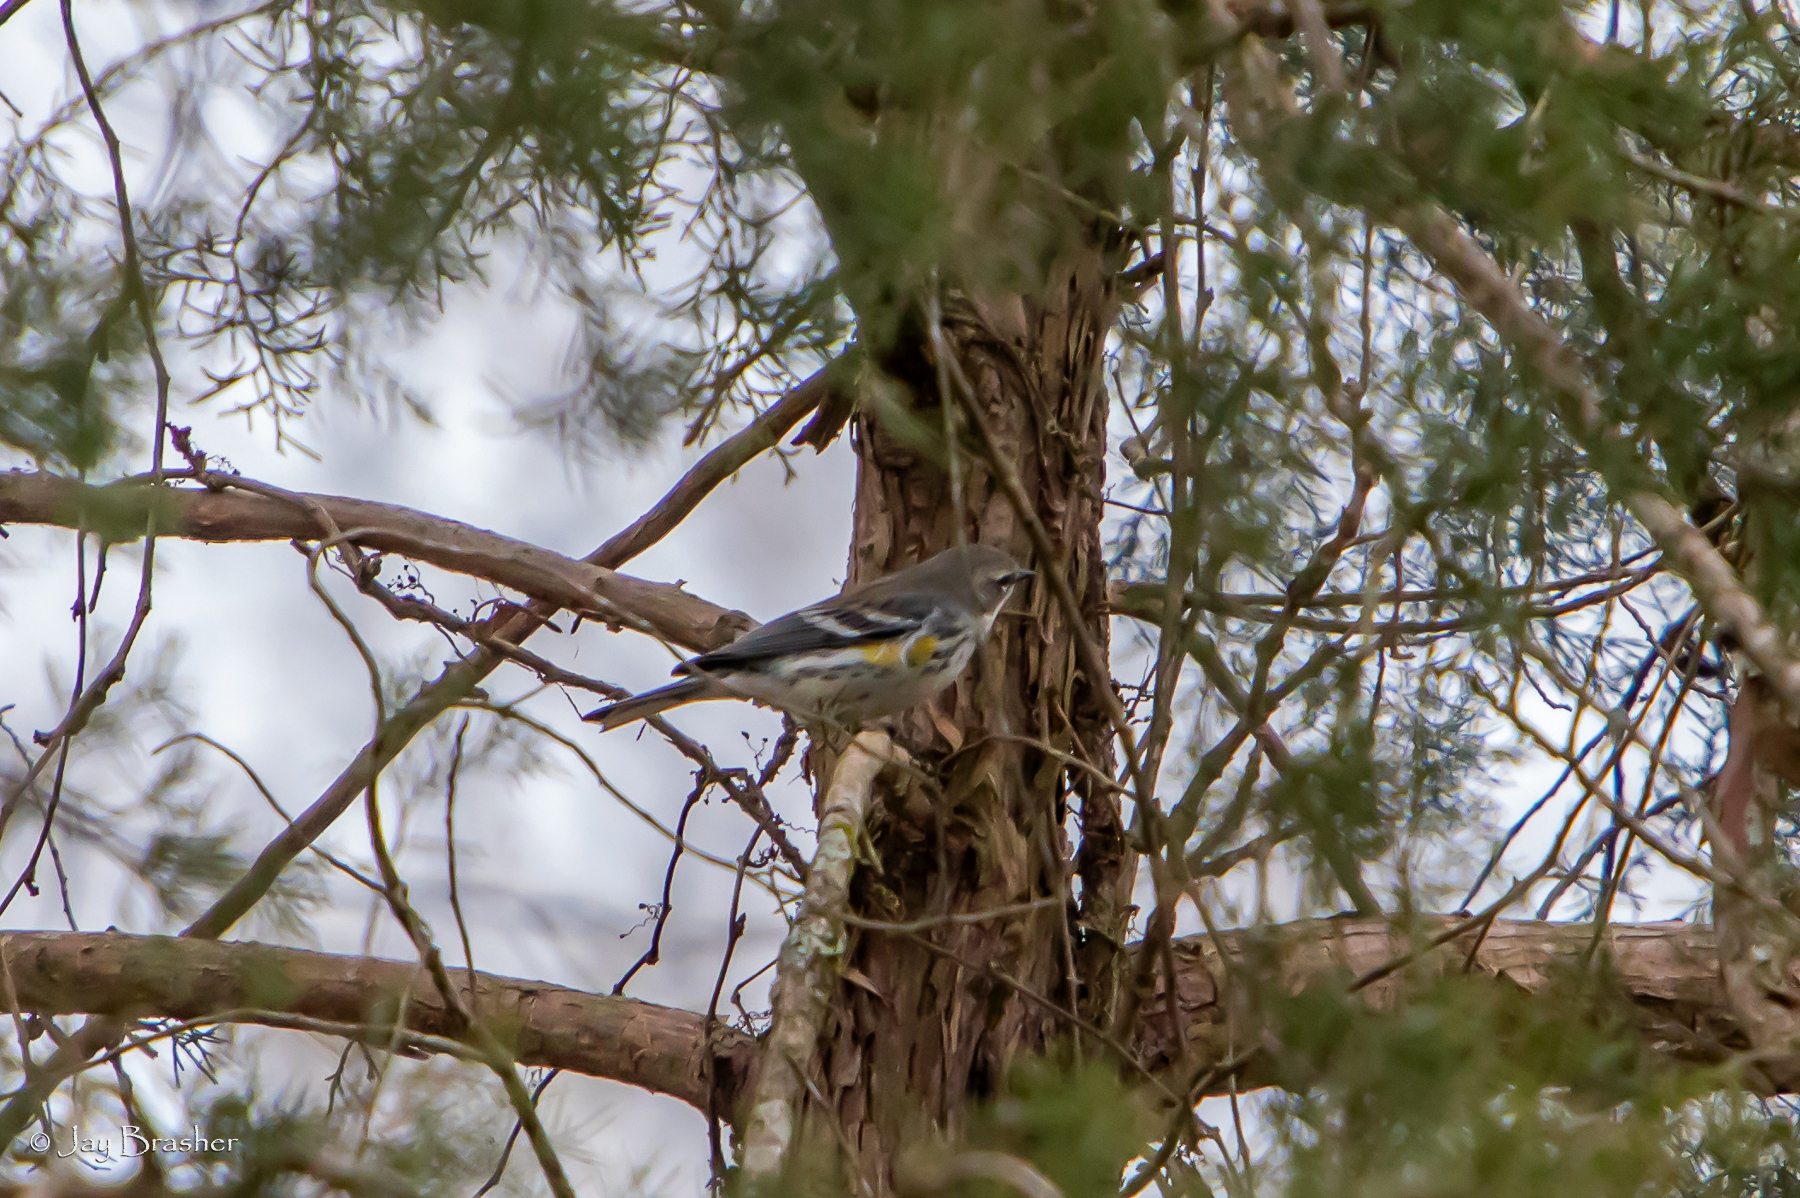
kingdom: Animalia
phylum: Chordata
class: Aves
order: Passeriformes
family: Parulidae
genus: Setophaga
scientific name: Setophaga coronata
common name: Myrtle warbler
